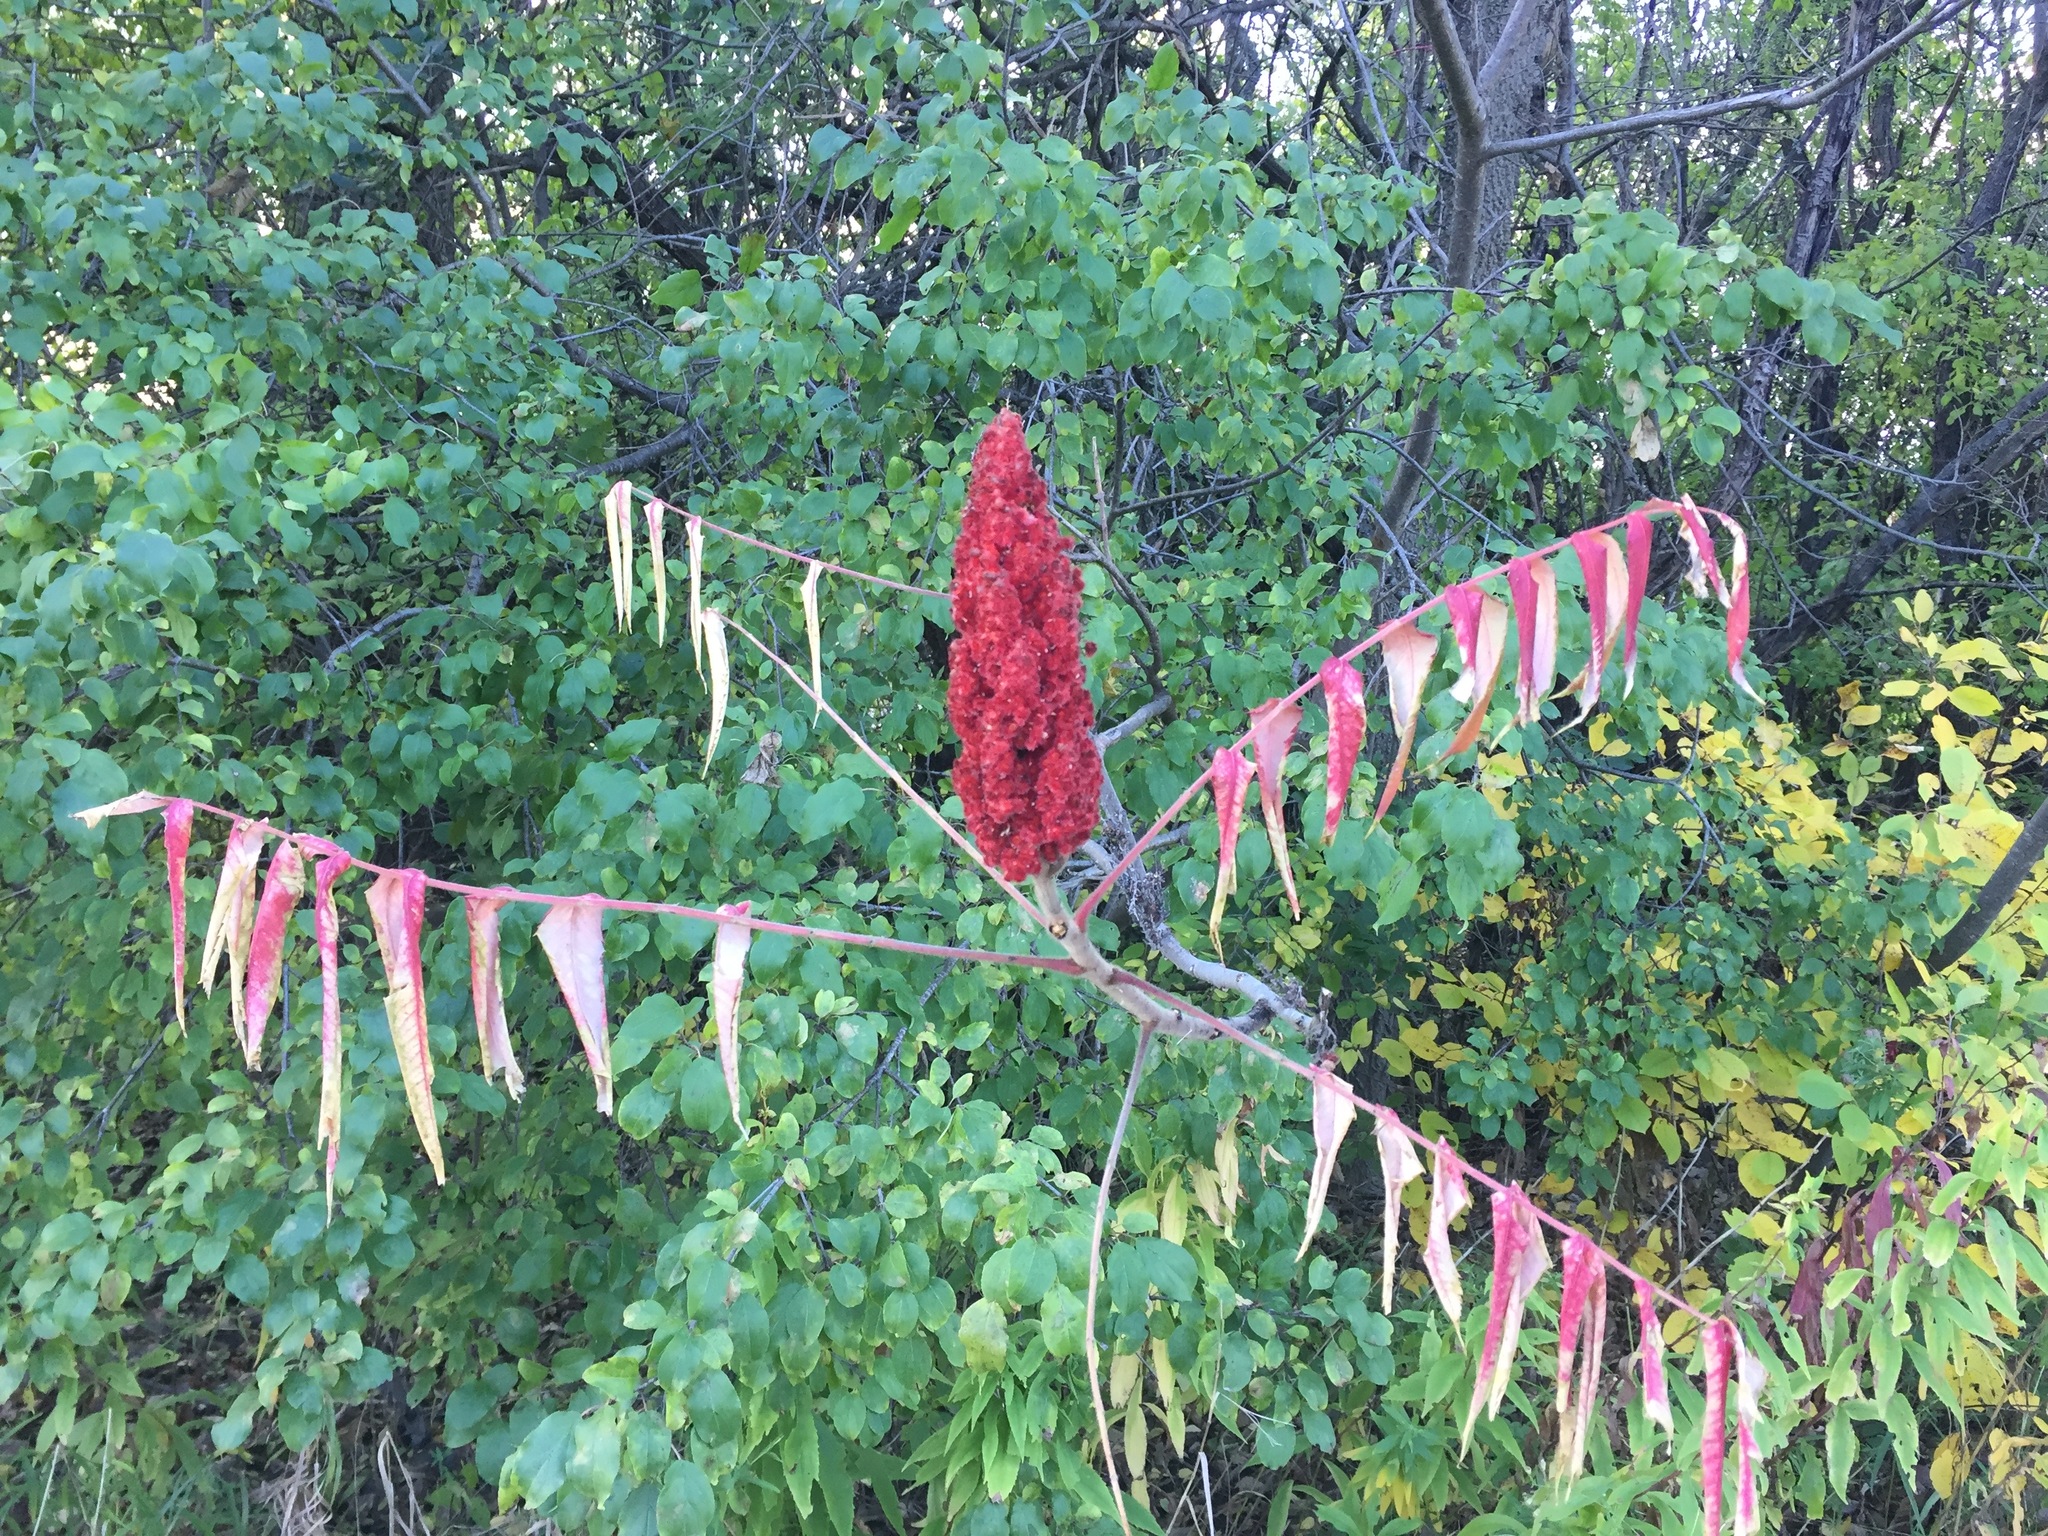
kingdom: Plantae
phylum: Tracheophyta
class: Magnoliopsida
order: Sapindales
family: Anacardiaceae
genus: Rhus
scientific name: Rhus typhina
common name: Staghorn sumac
